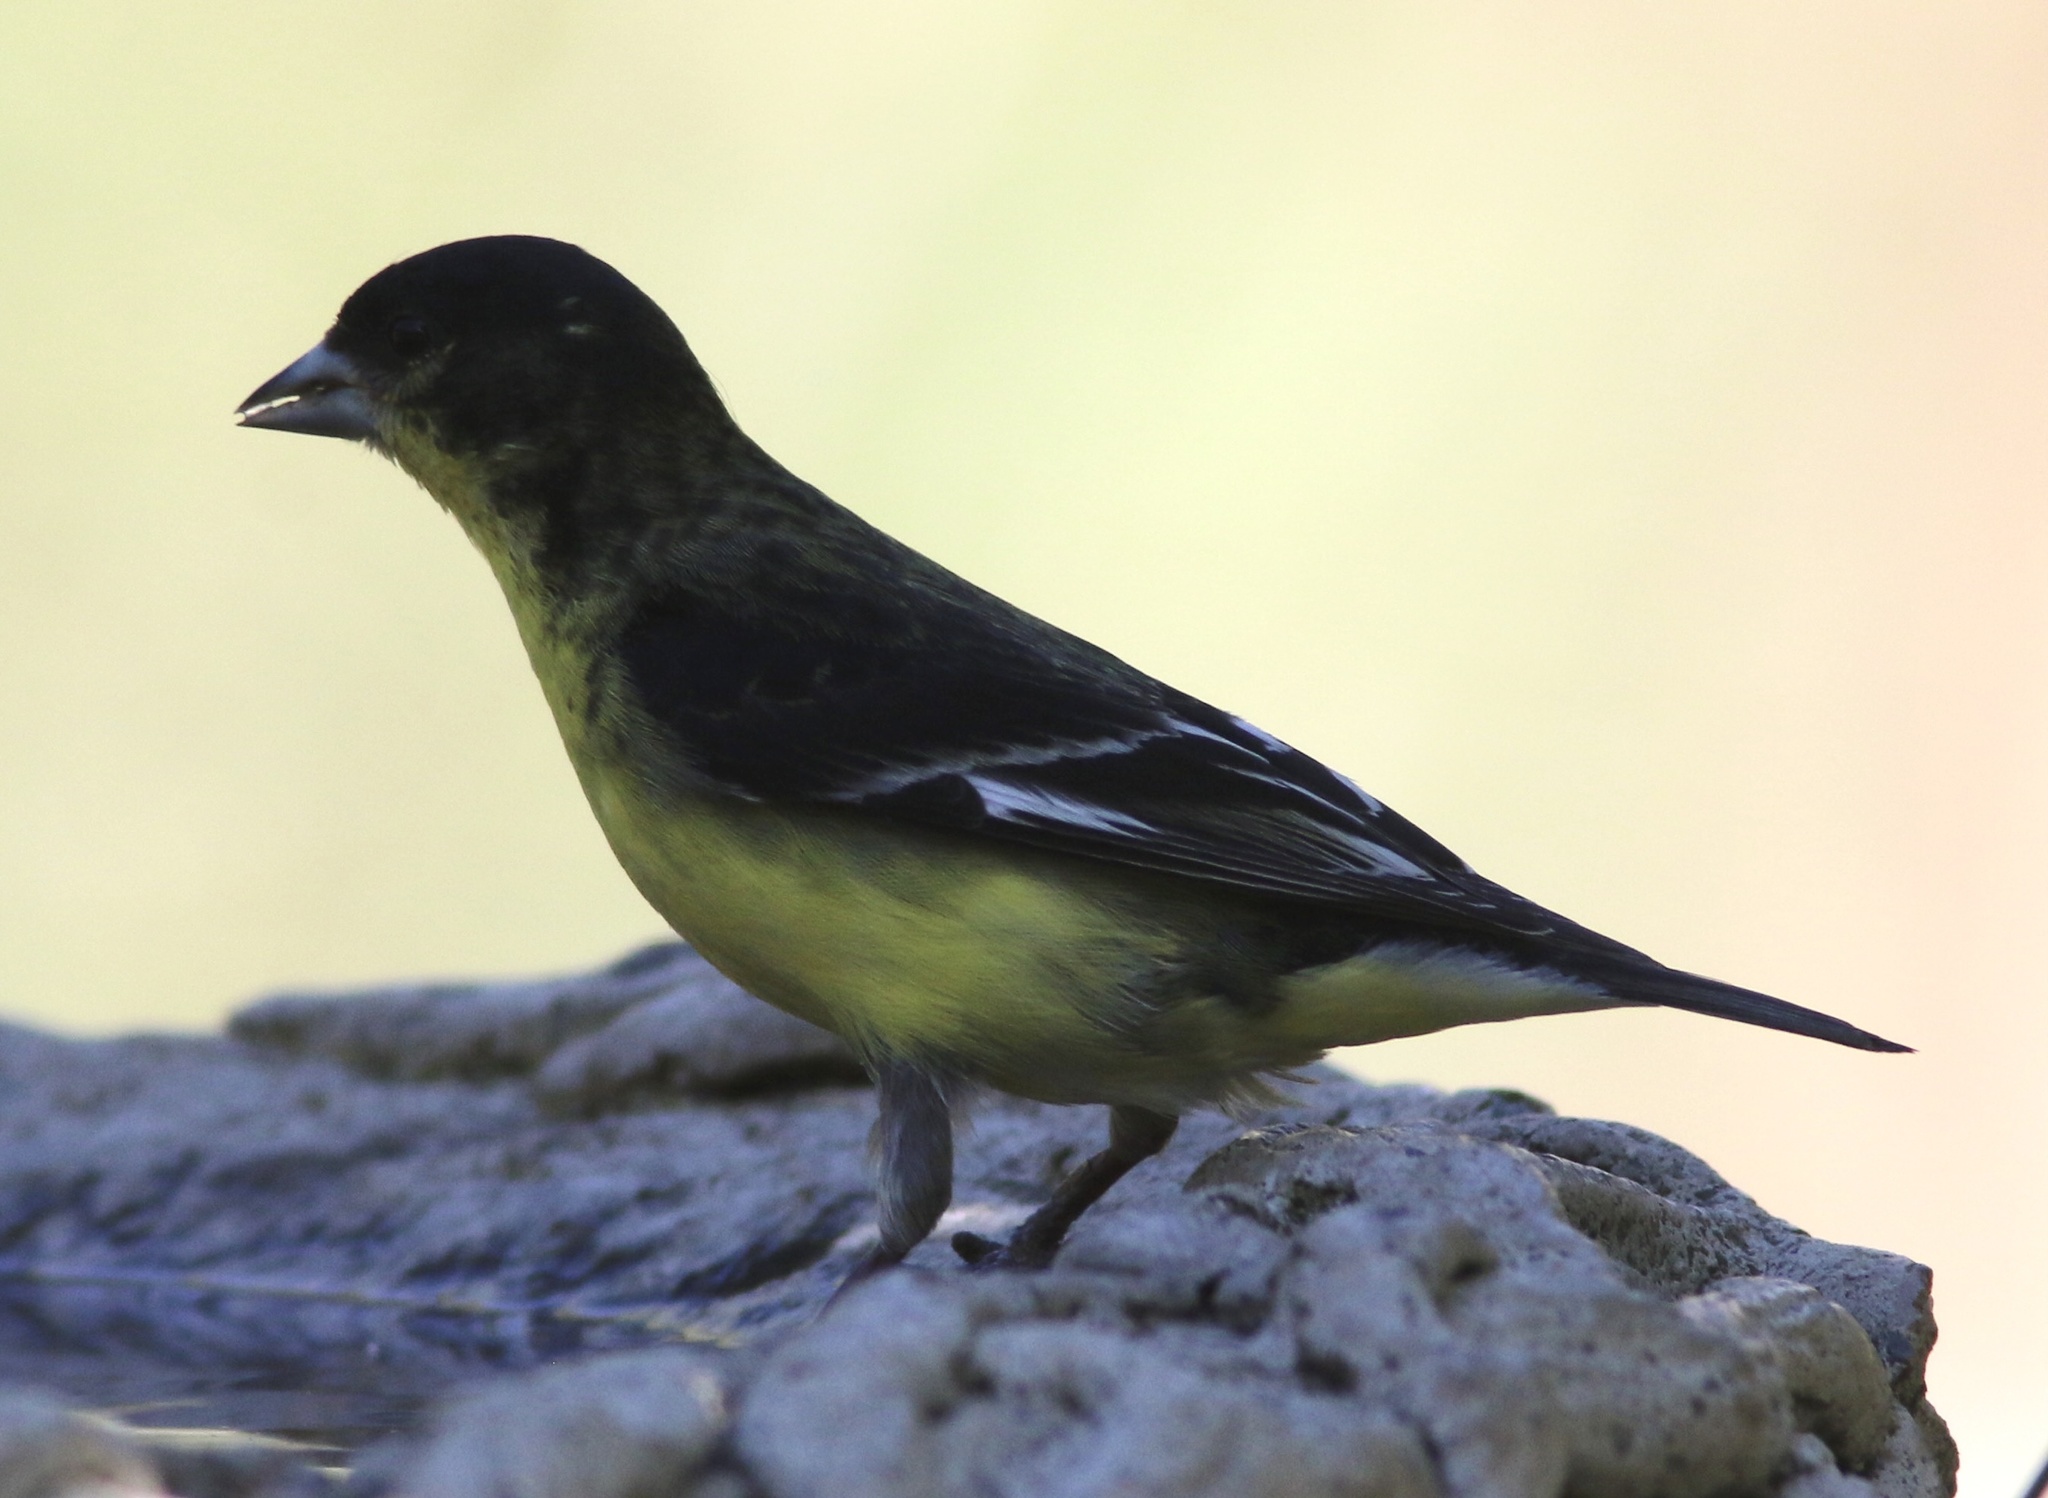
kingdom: Animalia
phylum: Chordata
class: Aves
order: Passeriformes
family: Fringillidae
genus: Spinus
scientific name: Spinus psaltria
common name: Lesser goldfinch
